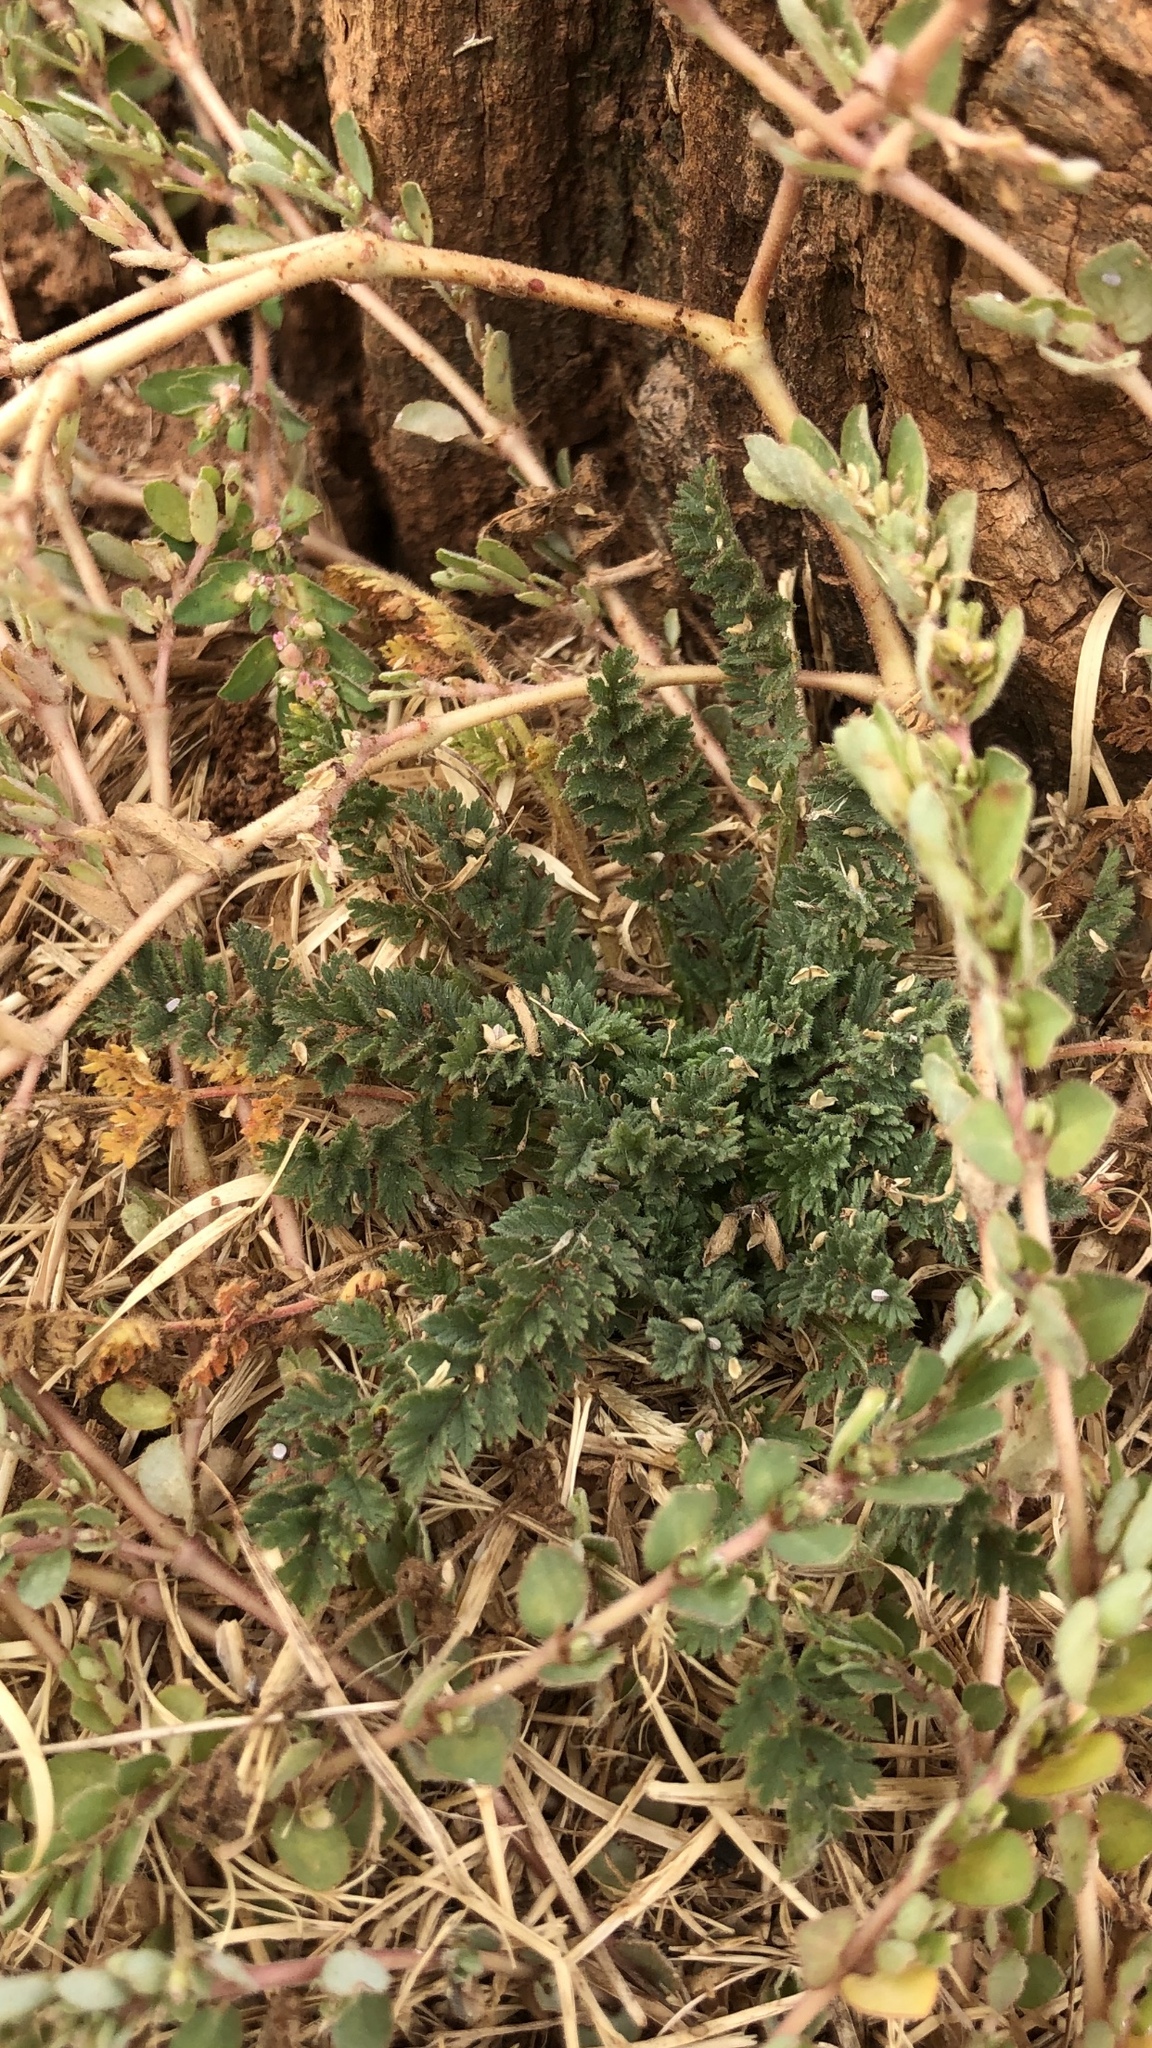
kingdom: Plantae
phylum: Tracheophyta
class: Magnoliopsida
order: Geraniales
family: Geraniaceae
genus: Erodium
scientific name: Erodium cicutarium
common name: Common stork's-bill
